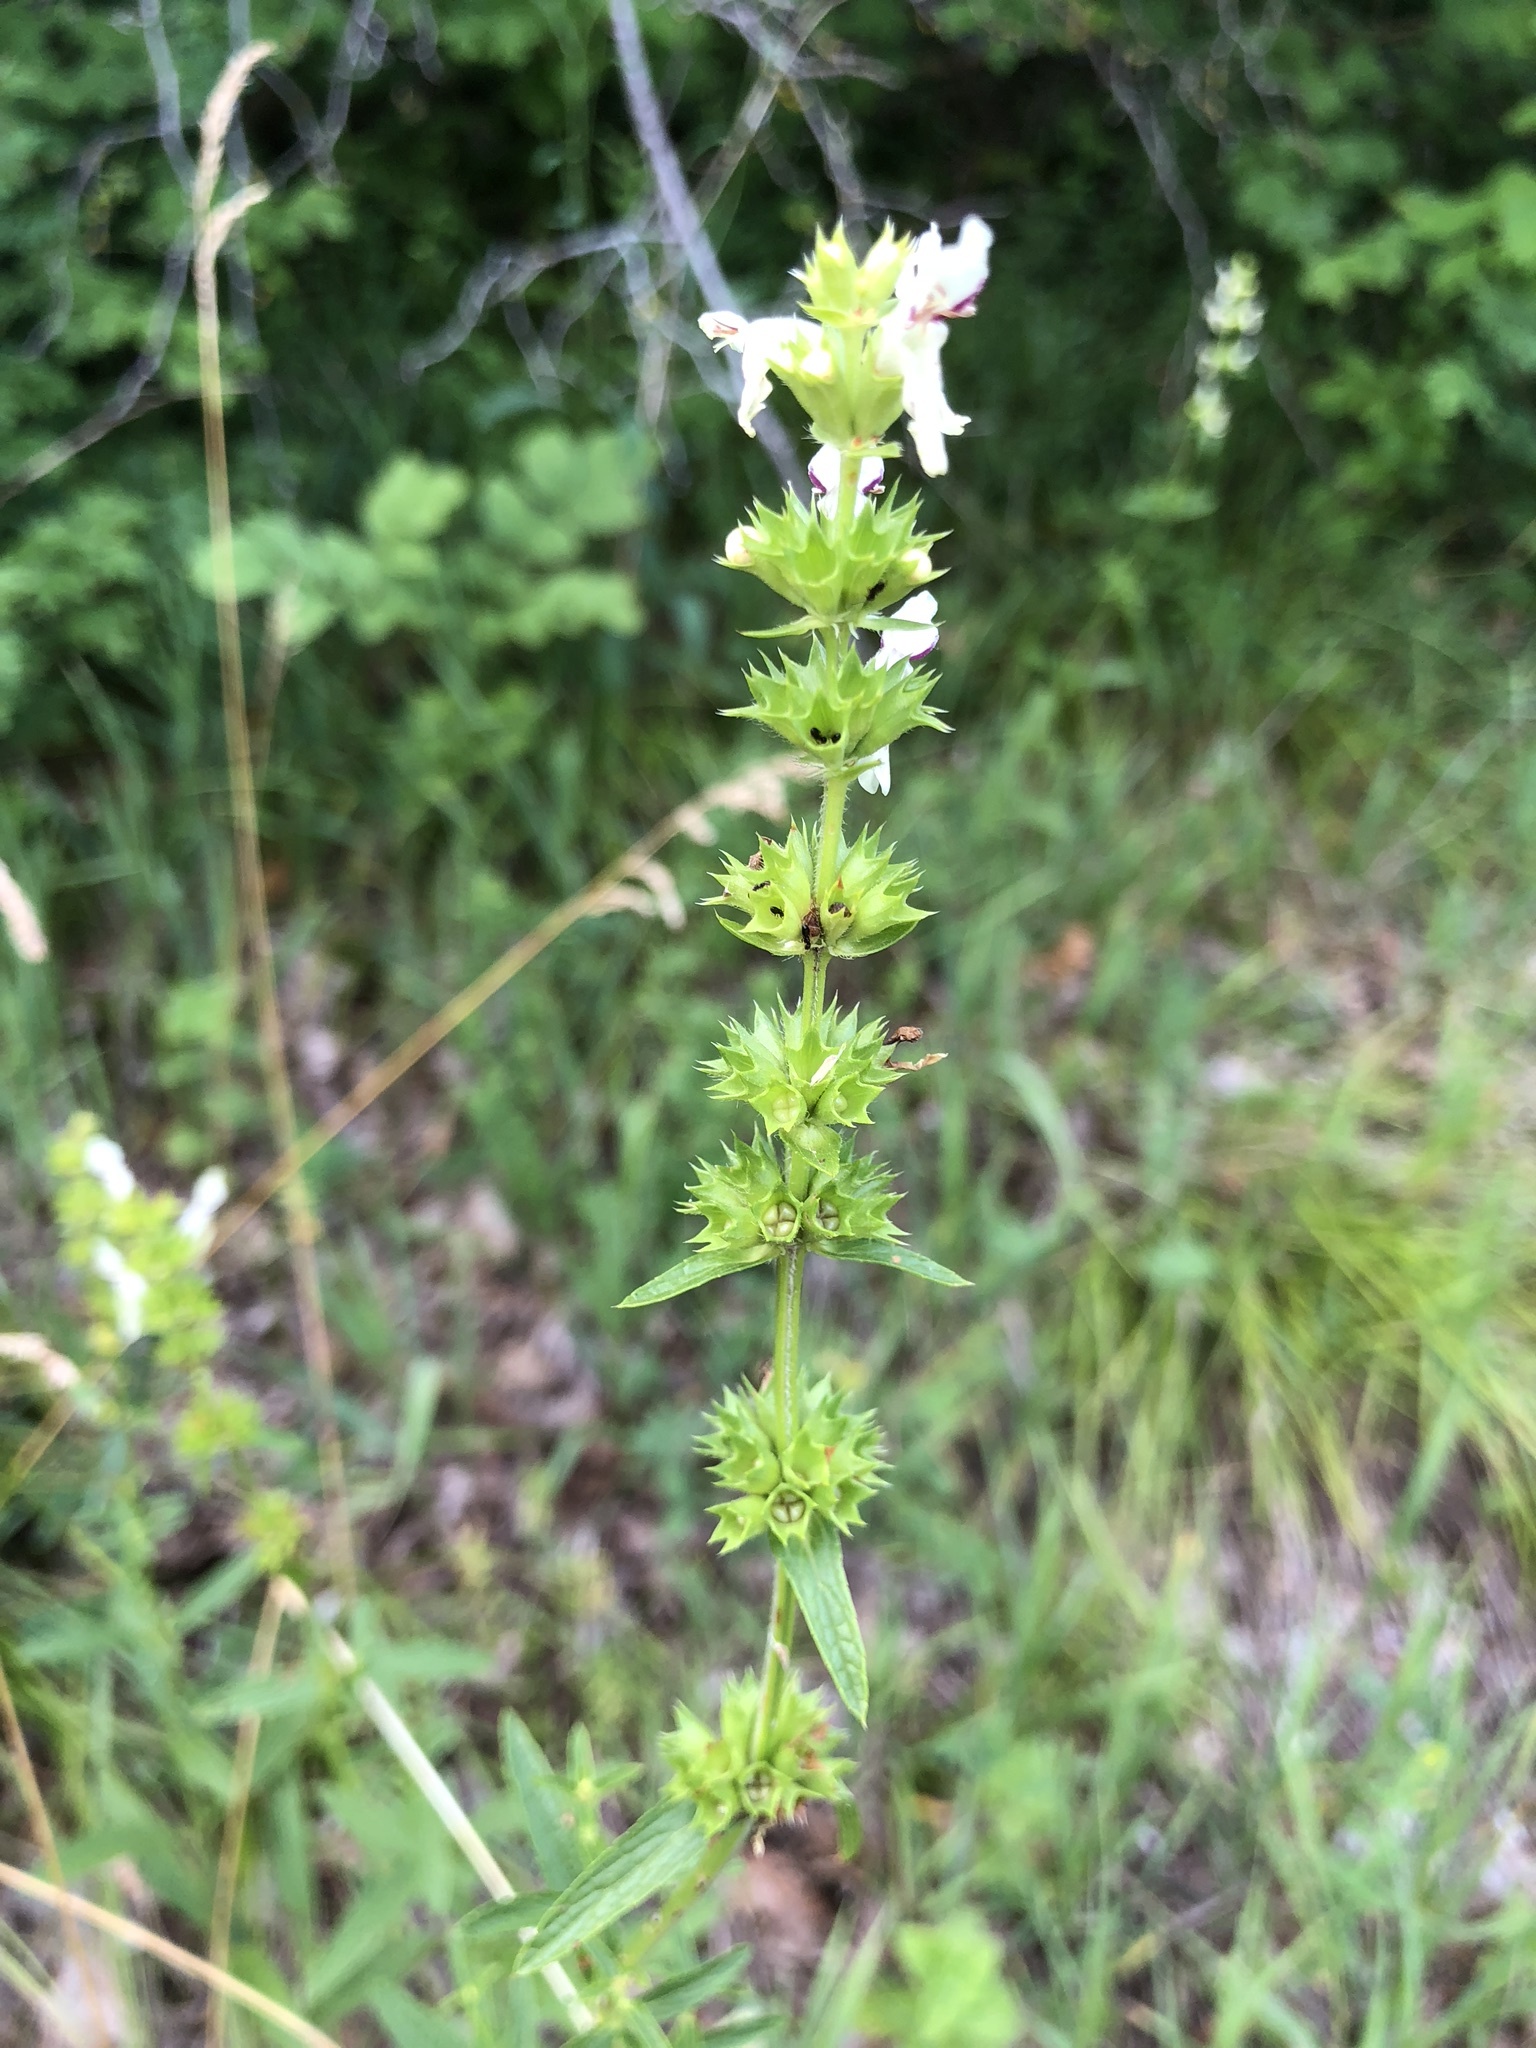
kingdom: Plantae
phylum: Tracheophyta
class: Magnoliopsida
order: Lamiales
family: Lamiaceae
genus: Stachys
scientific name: Stachys recta
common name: Perennial yellow-woundwort
